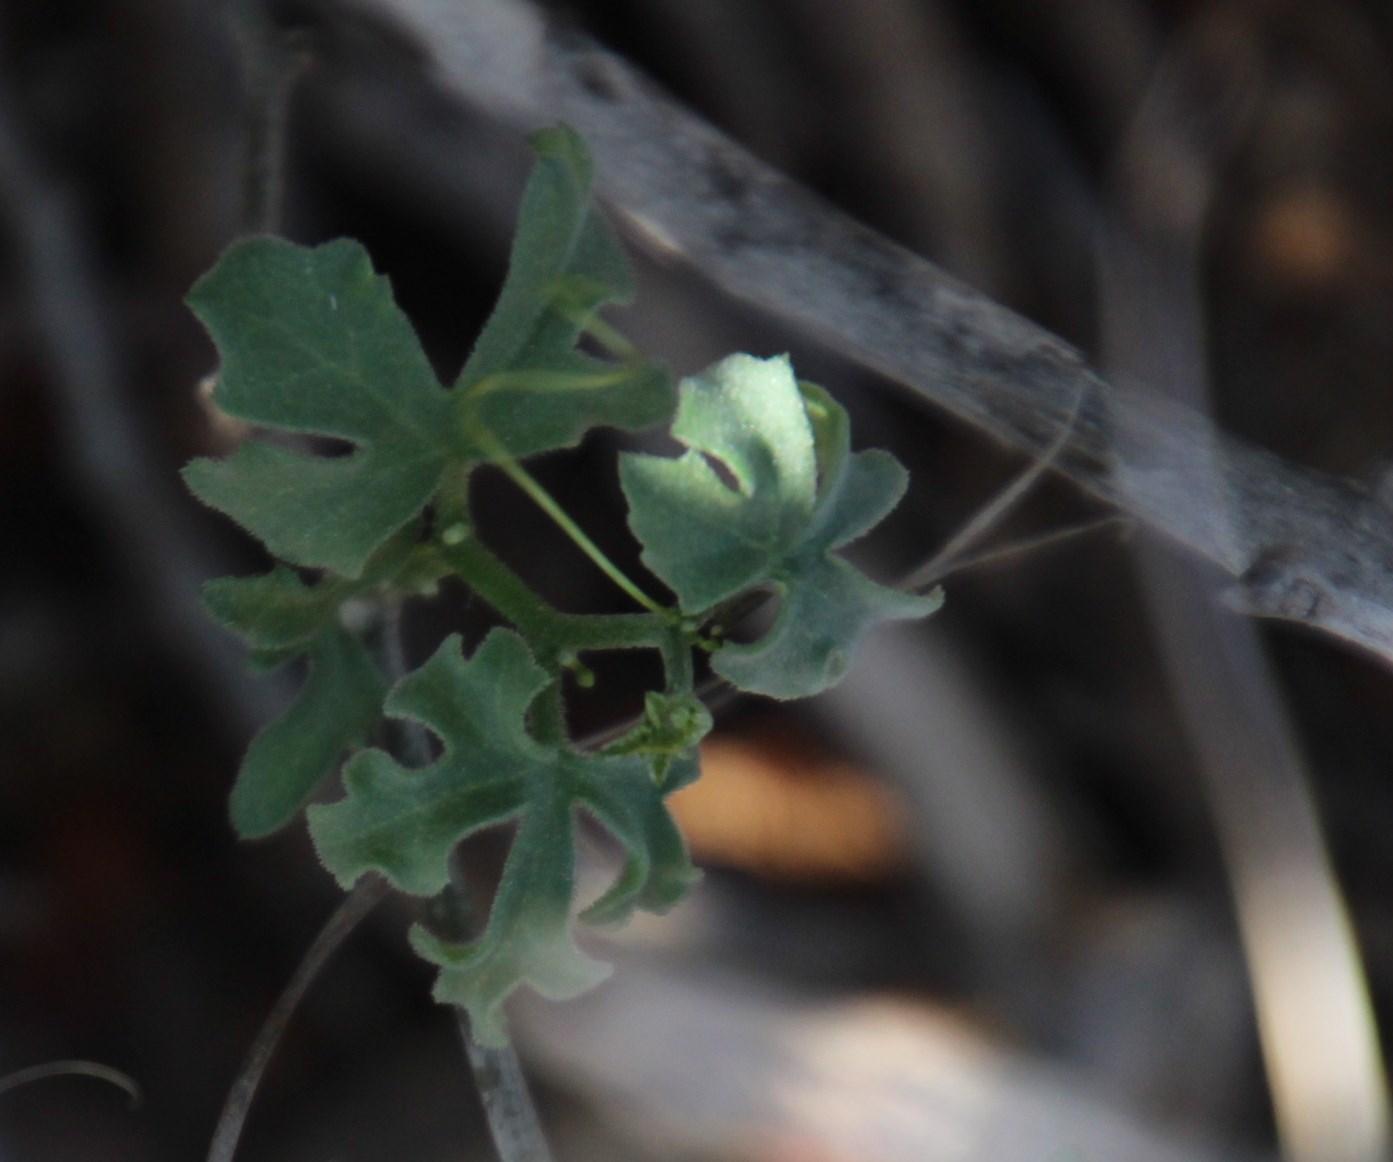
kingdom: Plantae
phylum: Tracheophyta
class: Magnoliopsida
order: Cucurbitales
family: Cucurbitaceae
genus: Kedrostis
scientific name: Kedrostis capensis
